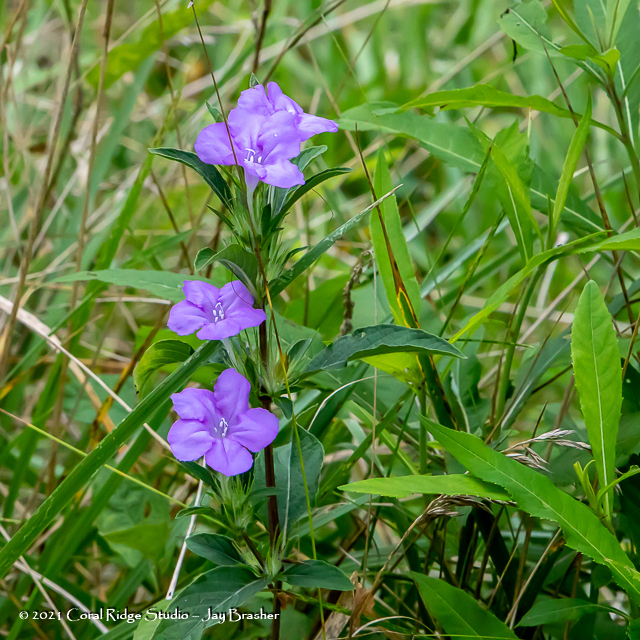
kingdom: Plantae
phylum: Tracheophyta
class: Magnoliopsida
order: Lamiales
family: Acanthaceae
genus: Ruellia
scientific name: Ruellia caroliniensis
